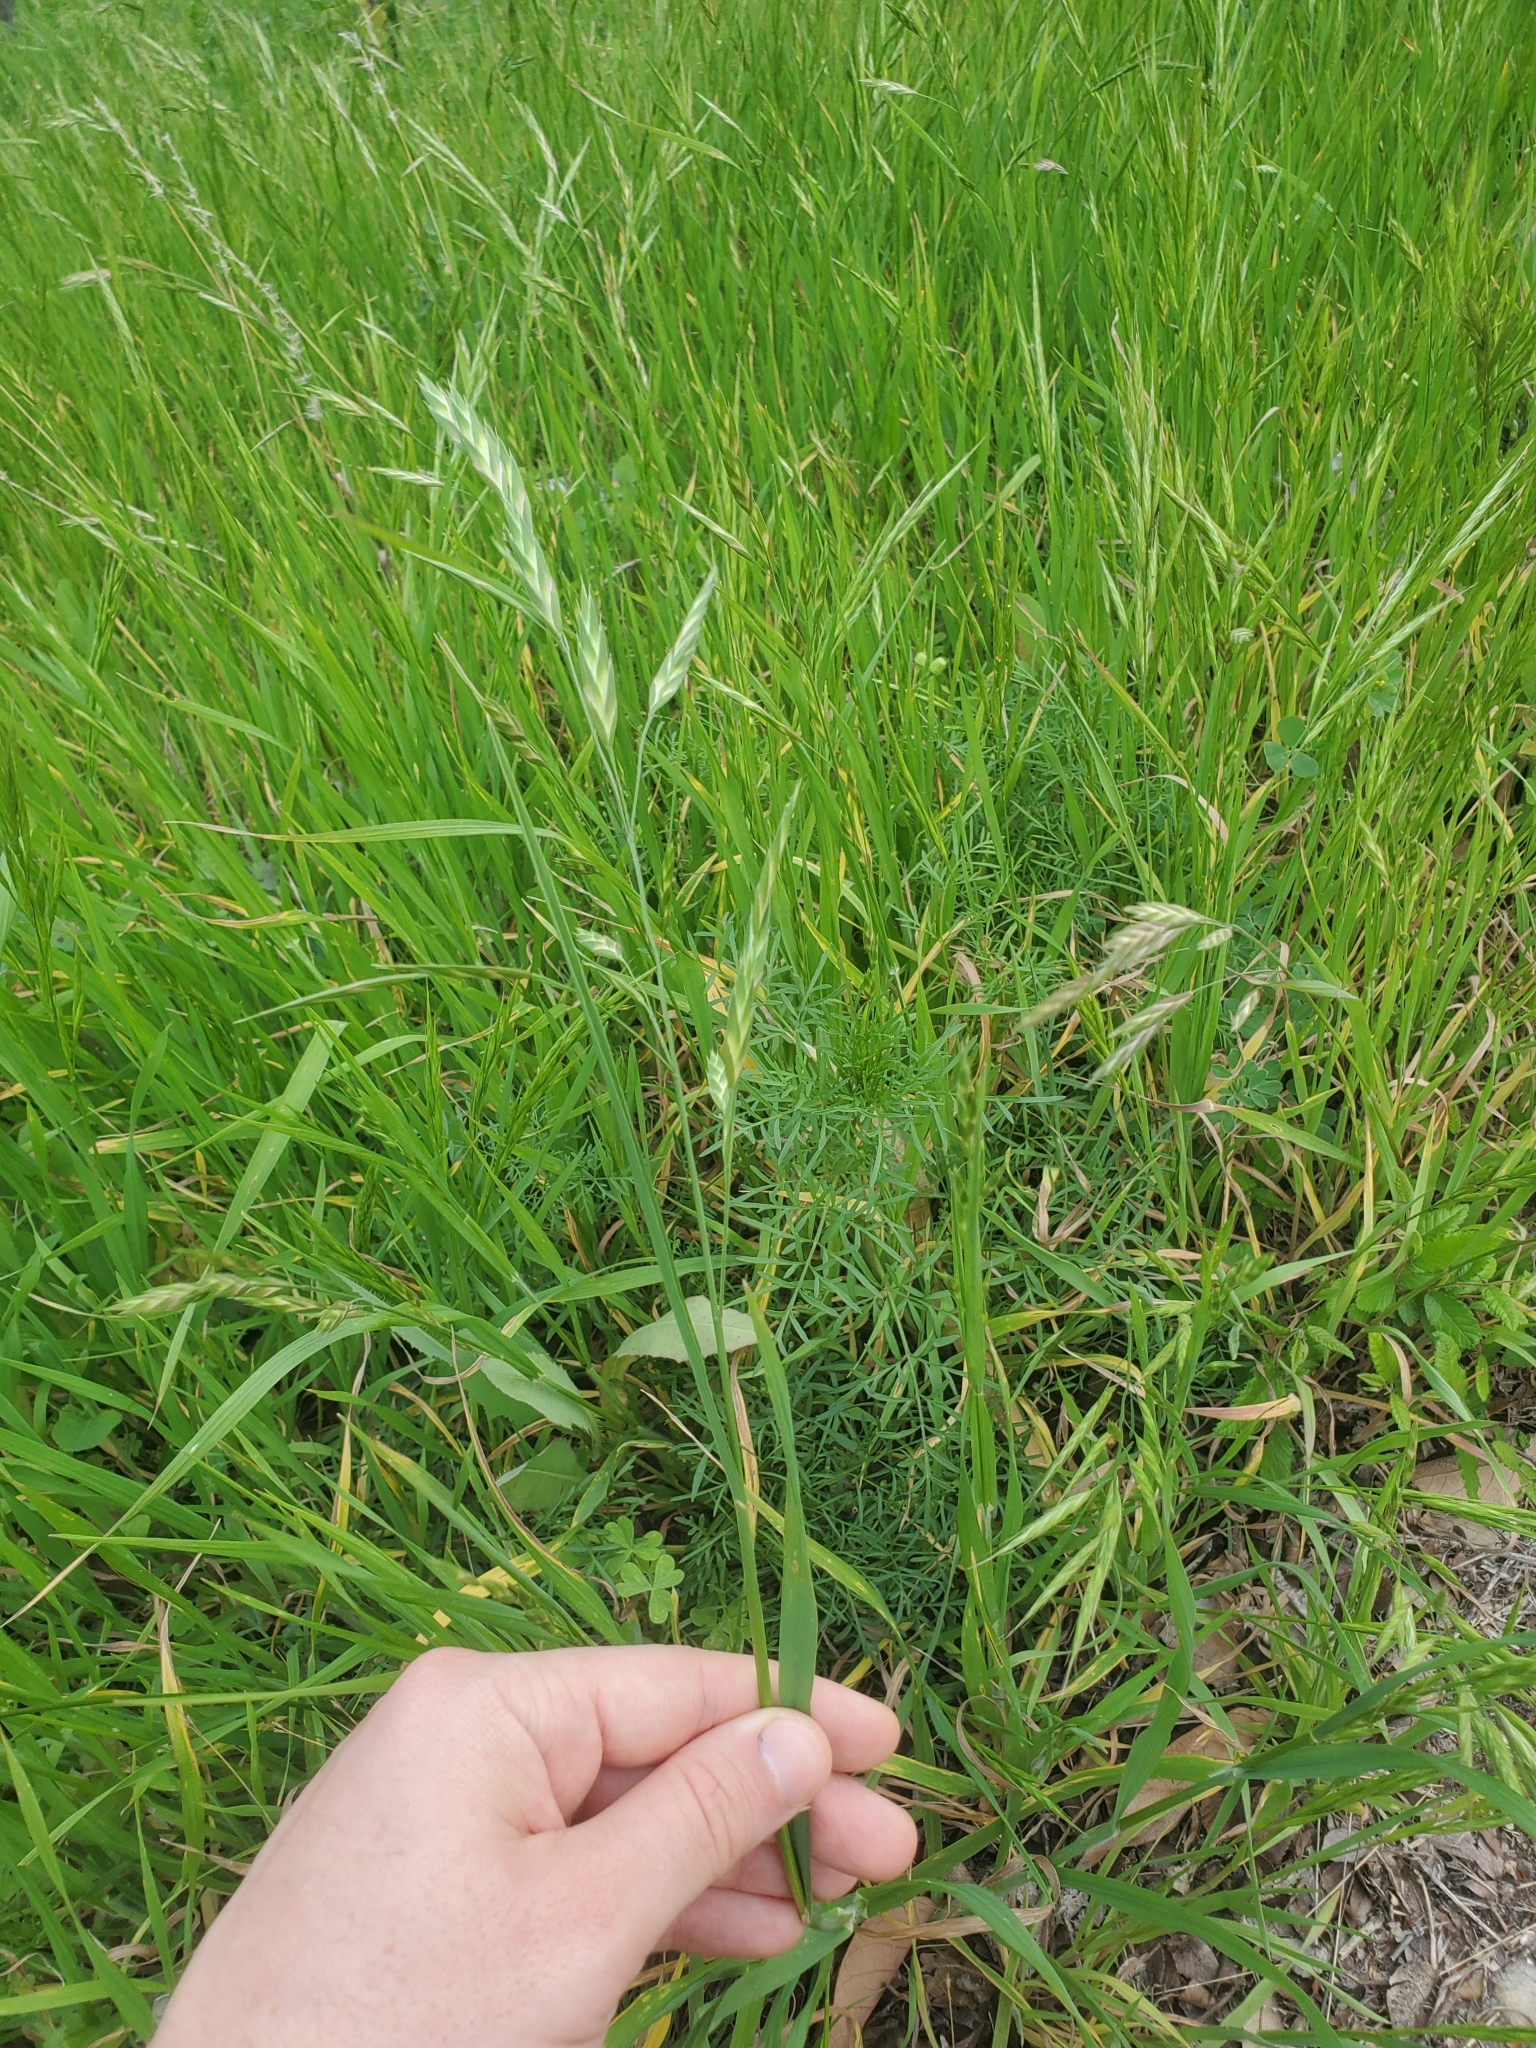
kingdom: Plantae
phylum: Tracheophyta
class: Liliopsida
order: Poales
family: Poaceae
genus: Bromus
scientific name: Bromus catharticus
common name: Rescuegrass
